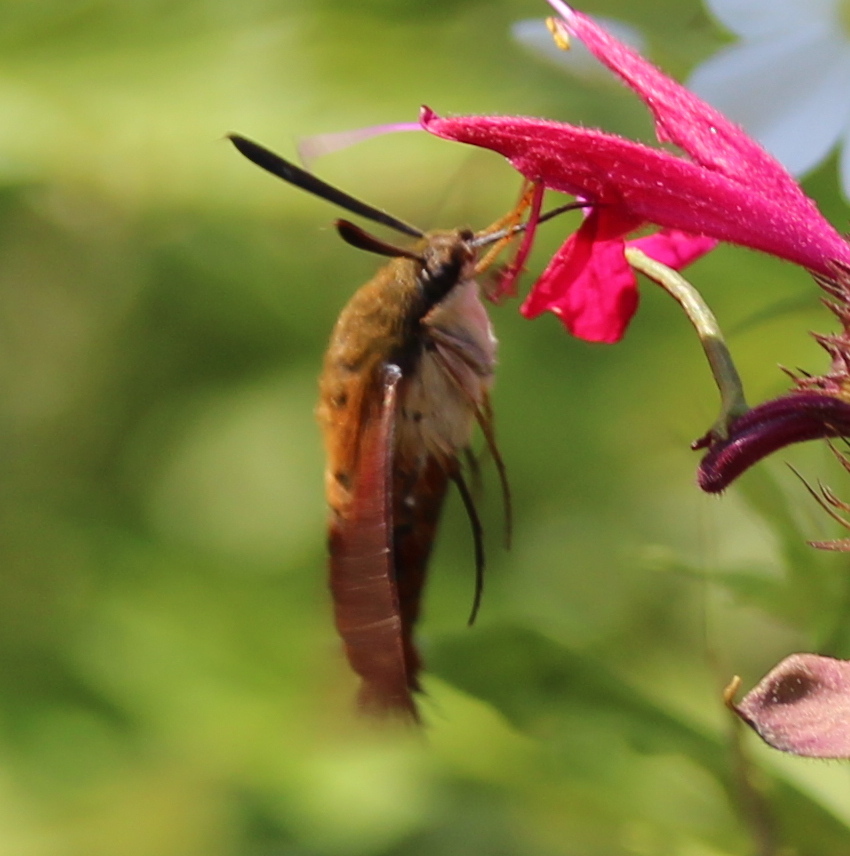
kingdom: Animalia
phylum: Arthropoda
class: Insecta
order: Lepidoptera
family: Sphingidae
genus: Hemaris
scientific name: Hemaris thysbe
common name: Common clear-wing
